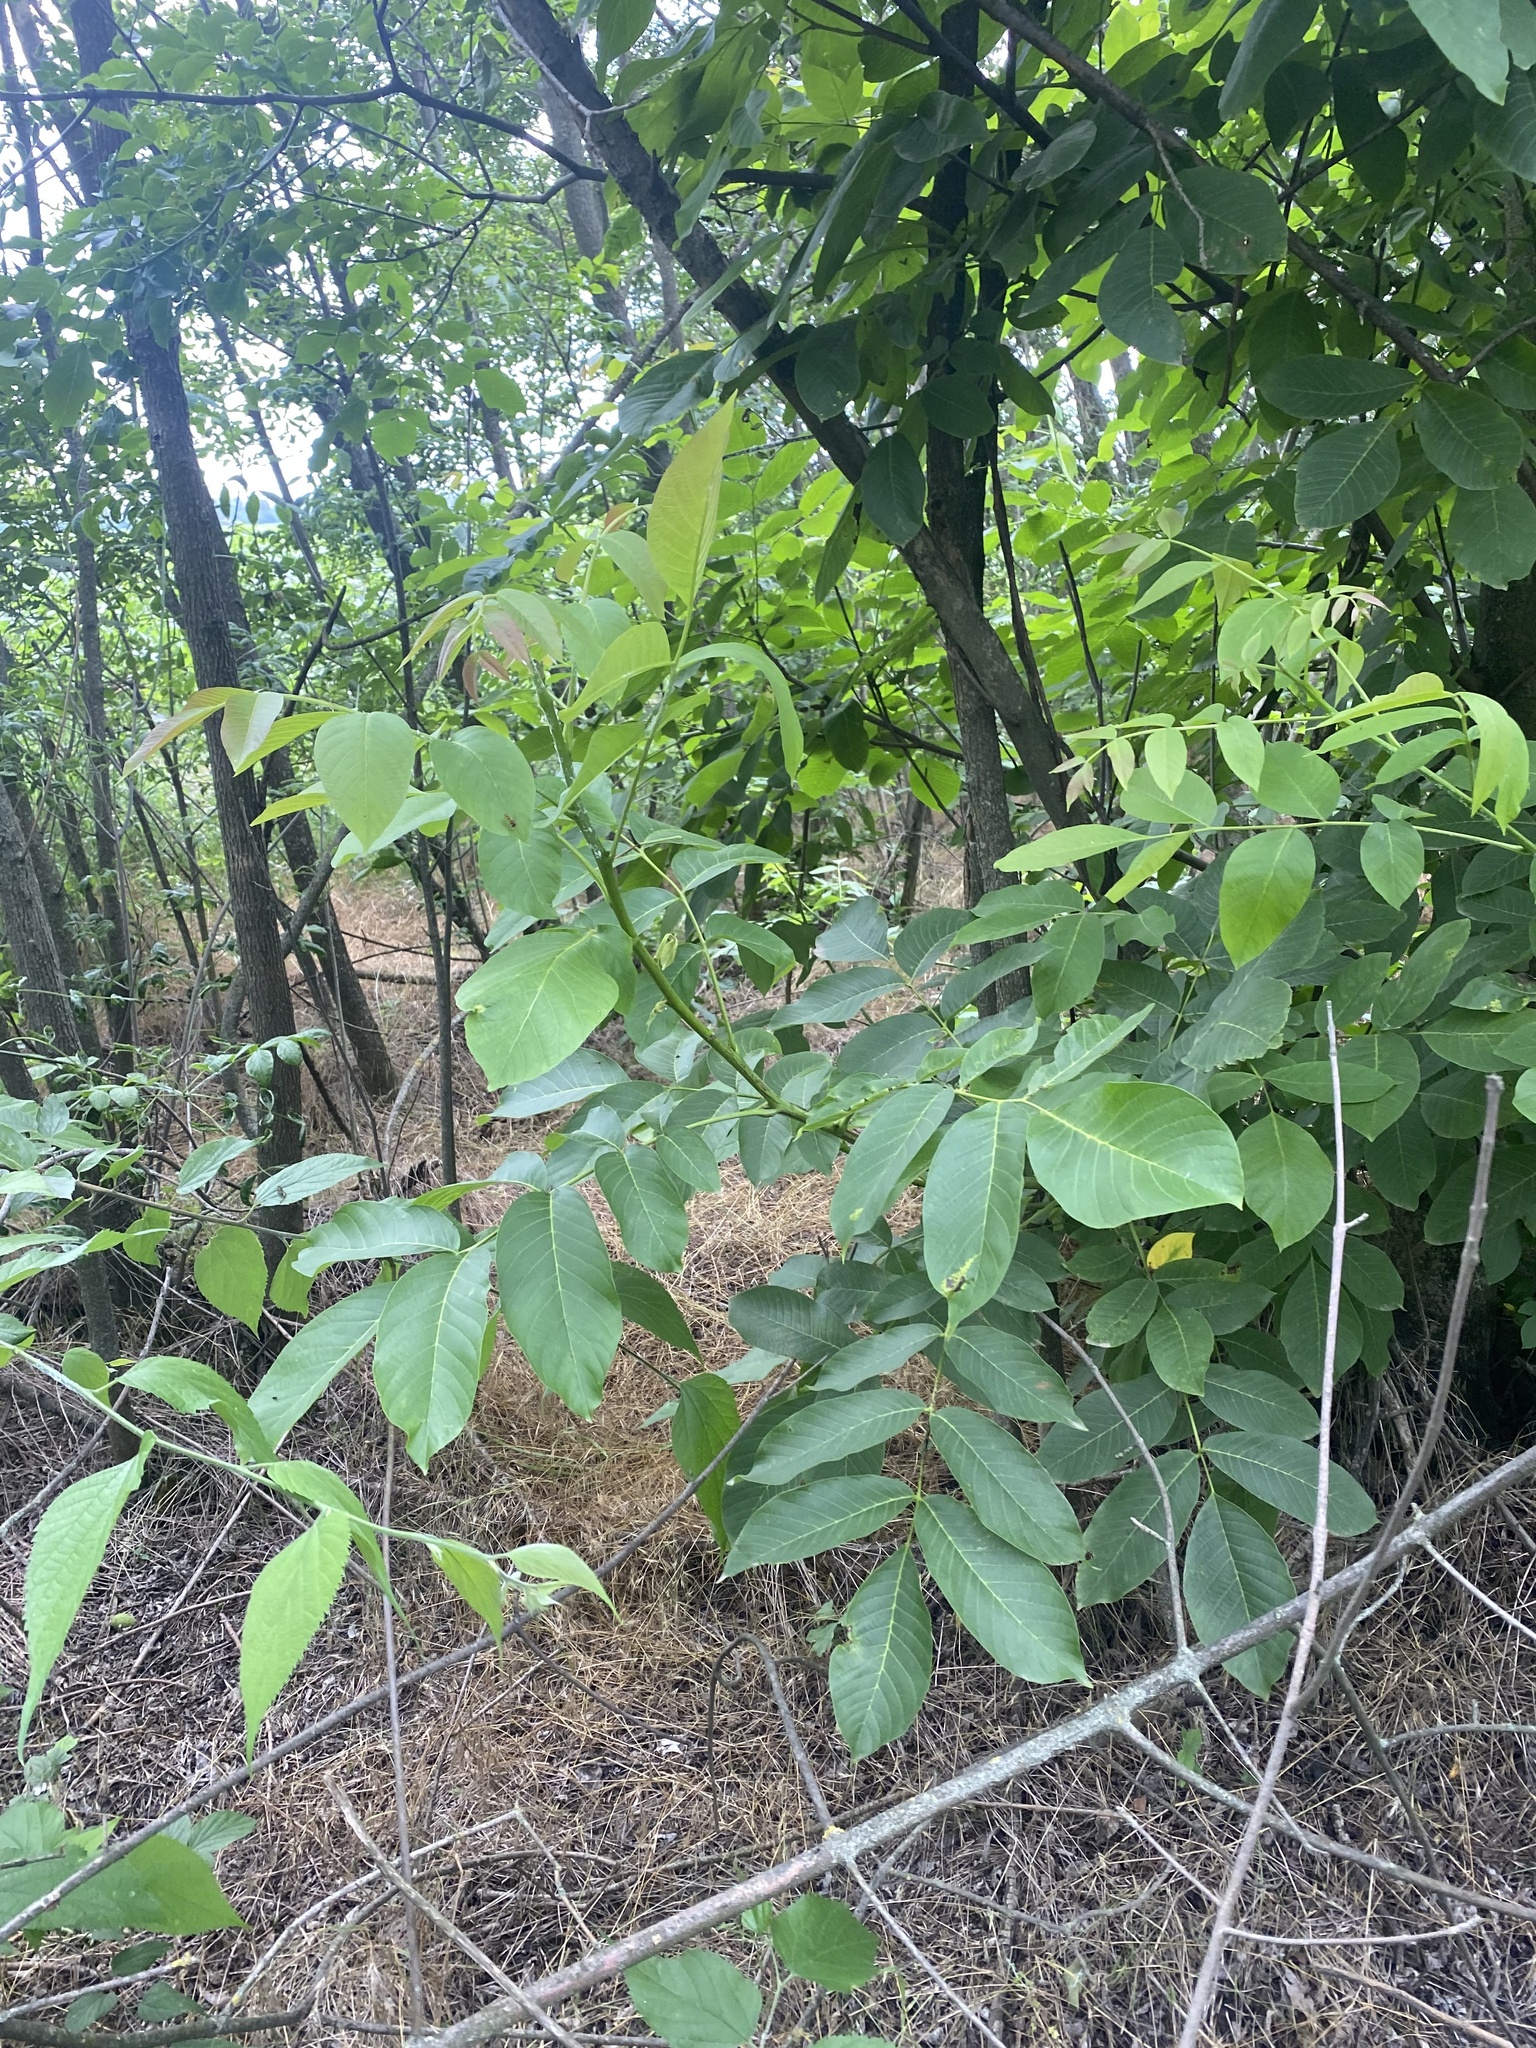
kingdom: Plantae
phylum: Tracheophyta
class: Magnoliopsida
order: Fagales
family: Juglandaceae
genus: Juglans
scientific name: Juglans regia
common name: Walnut
